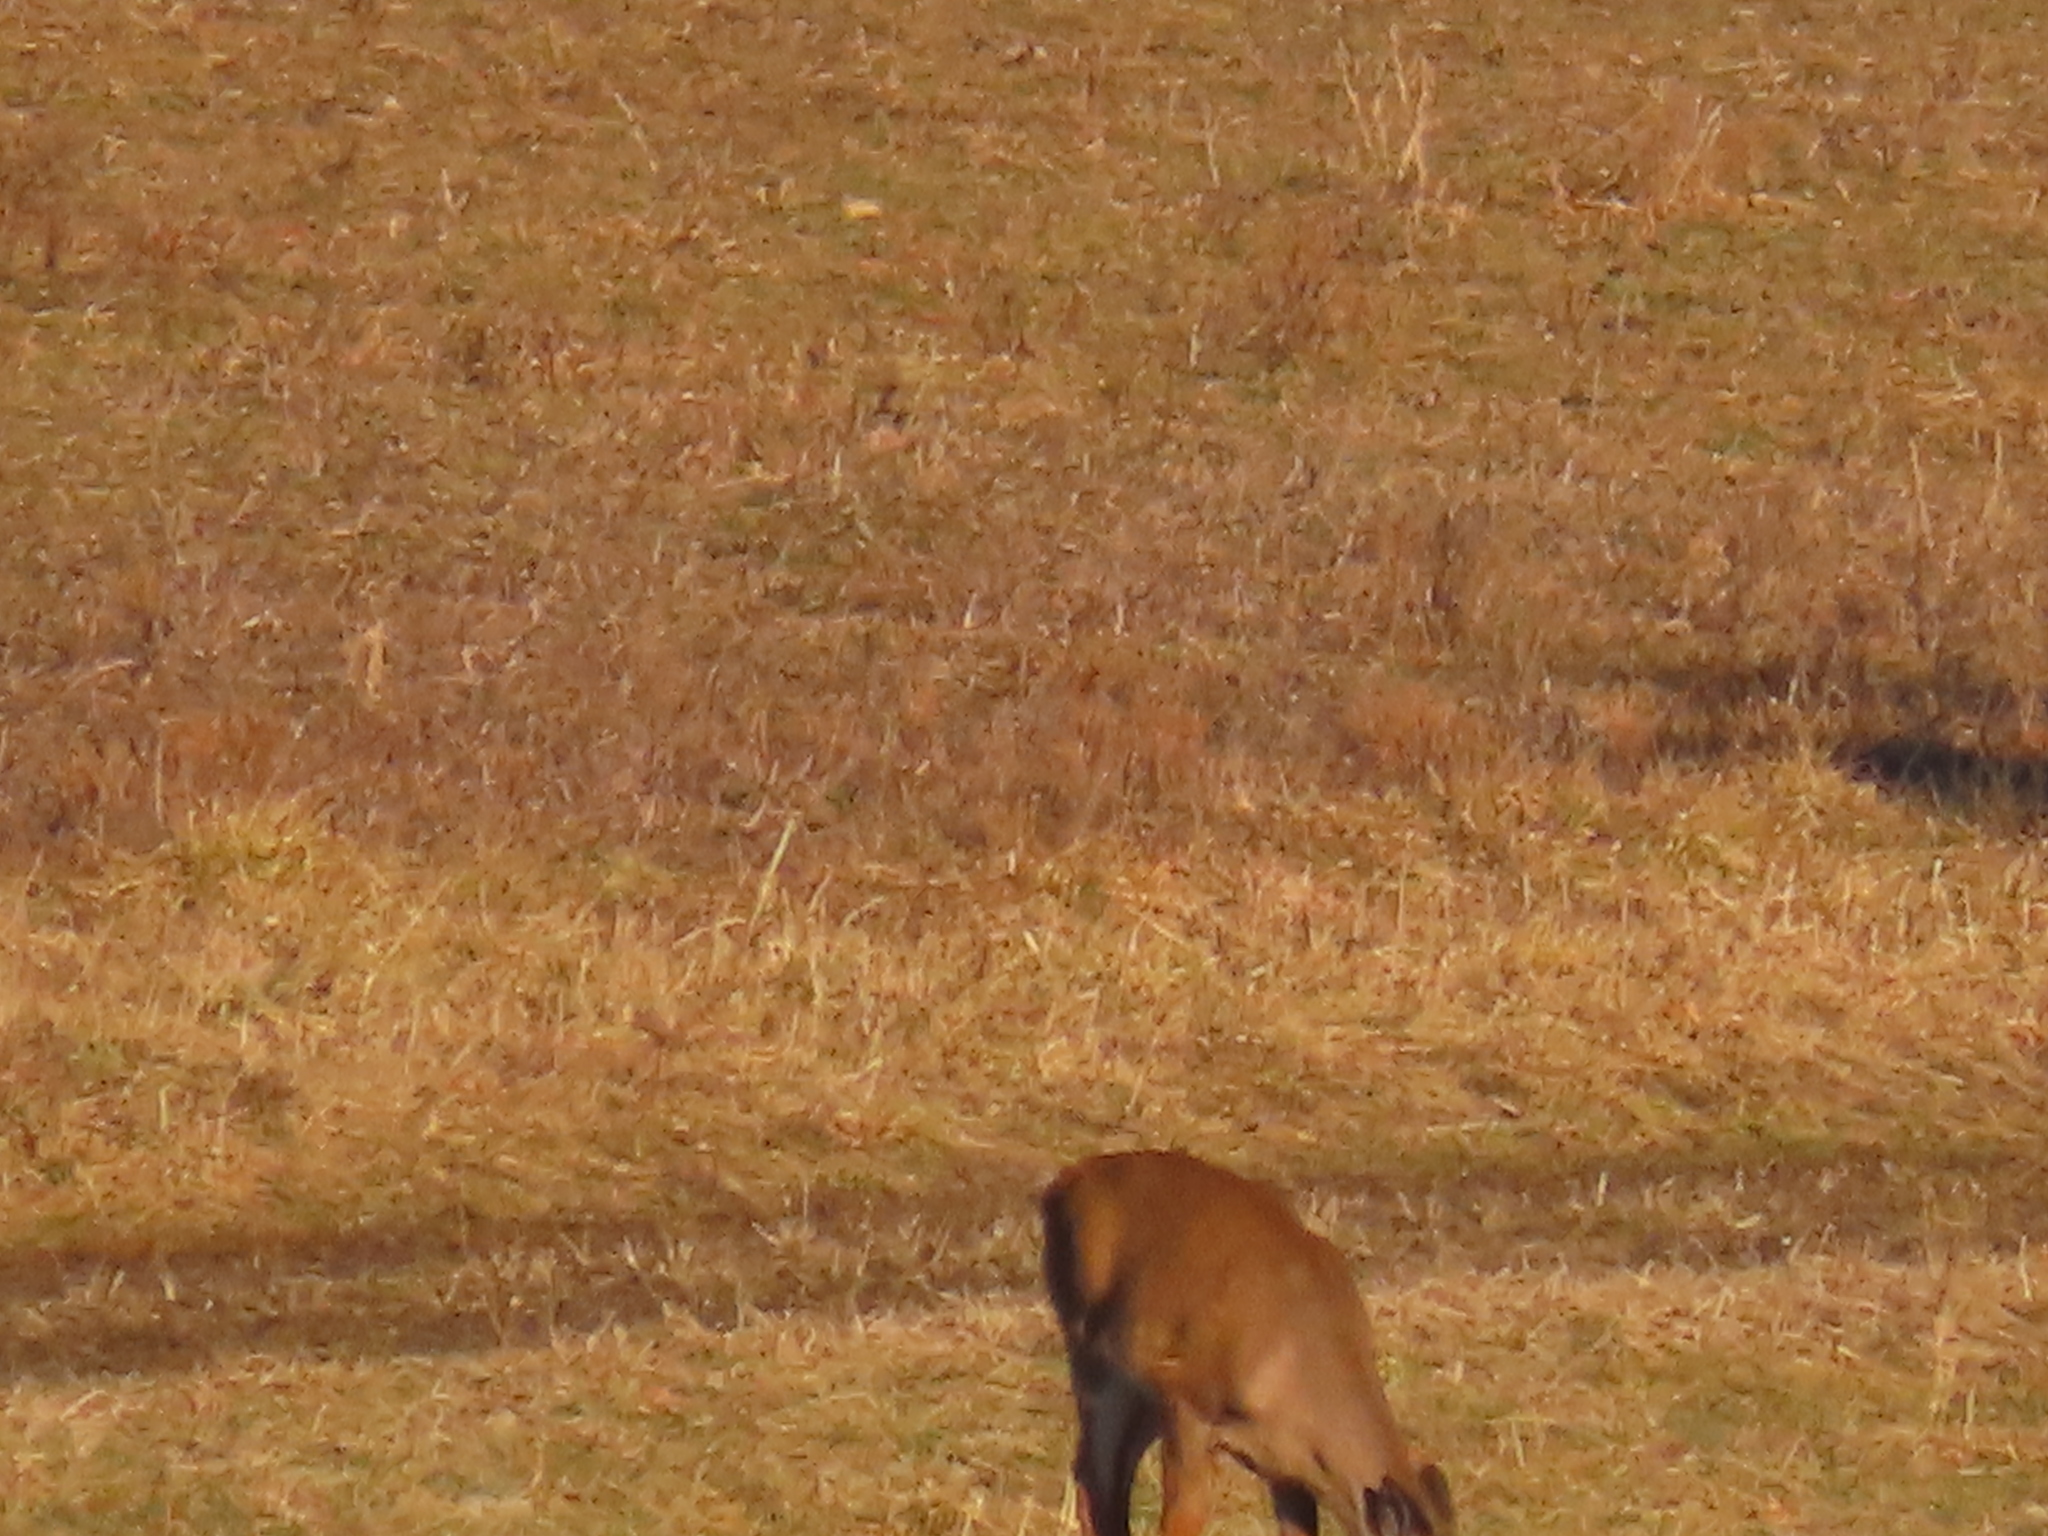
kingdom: Animalia
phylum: Chordata
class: Mammalia
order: Artiodactyla
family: Cervidae
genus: Odocoileus
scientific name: Odocoileus virginianus
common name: White-tailed deer
